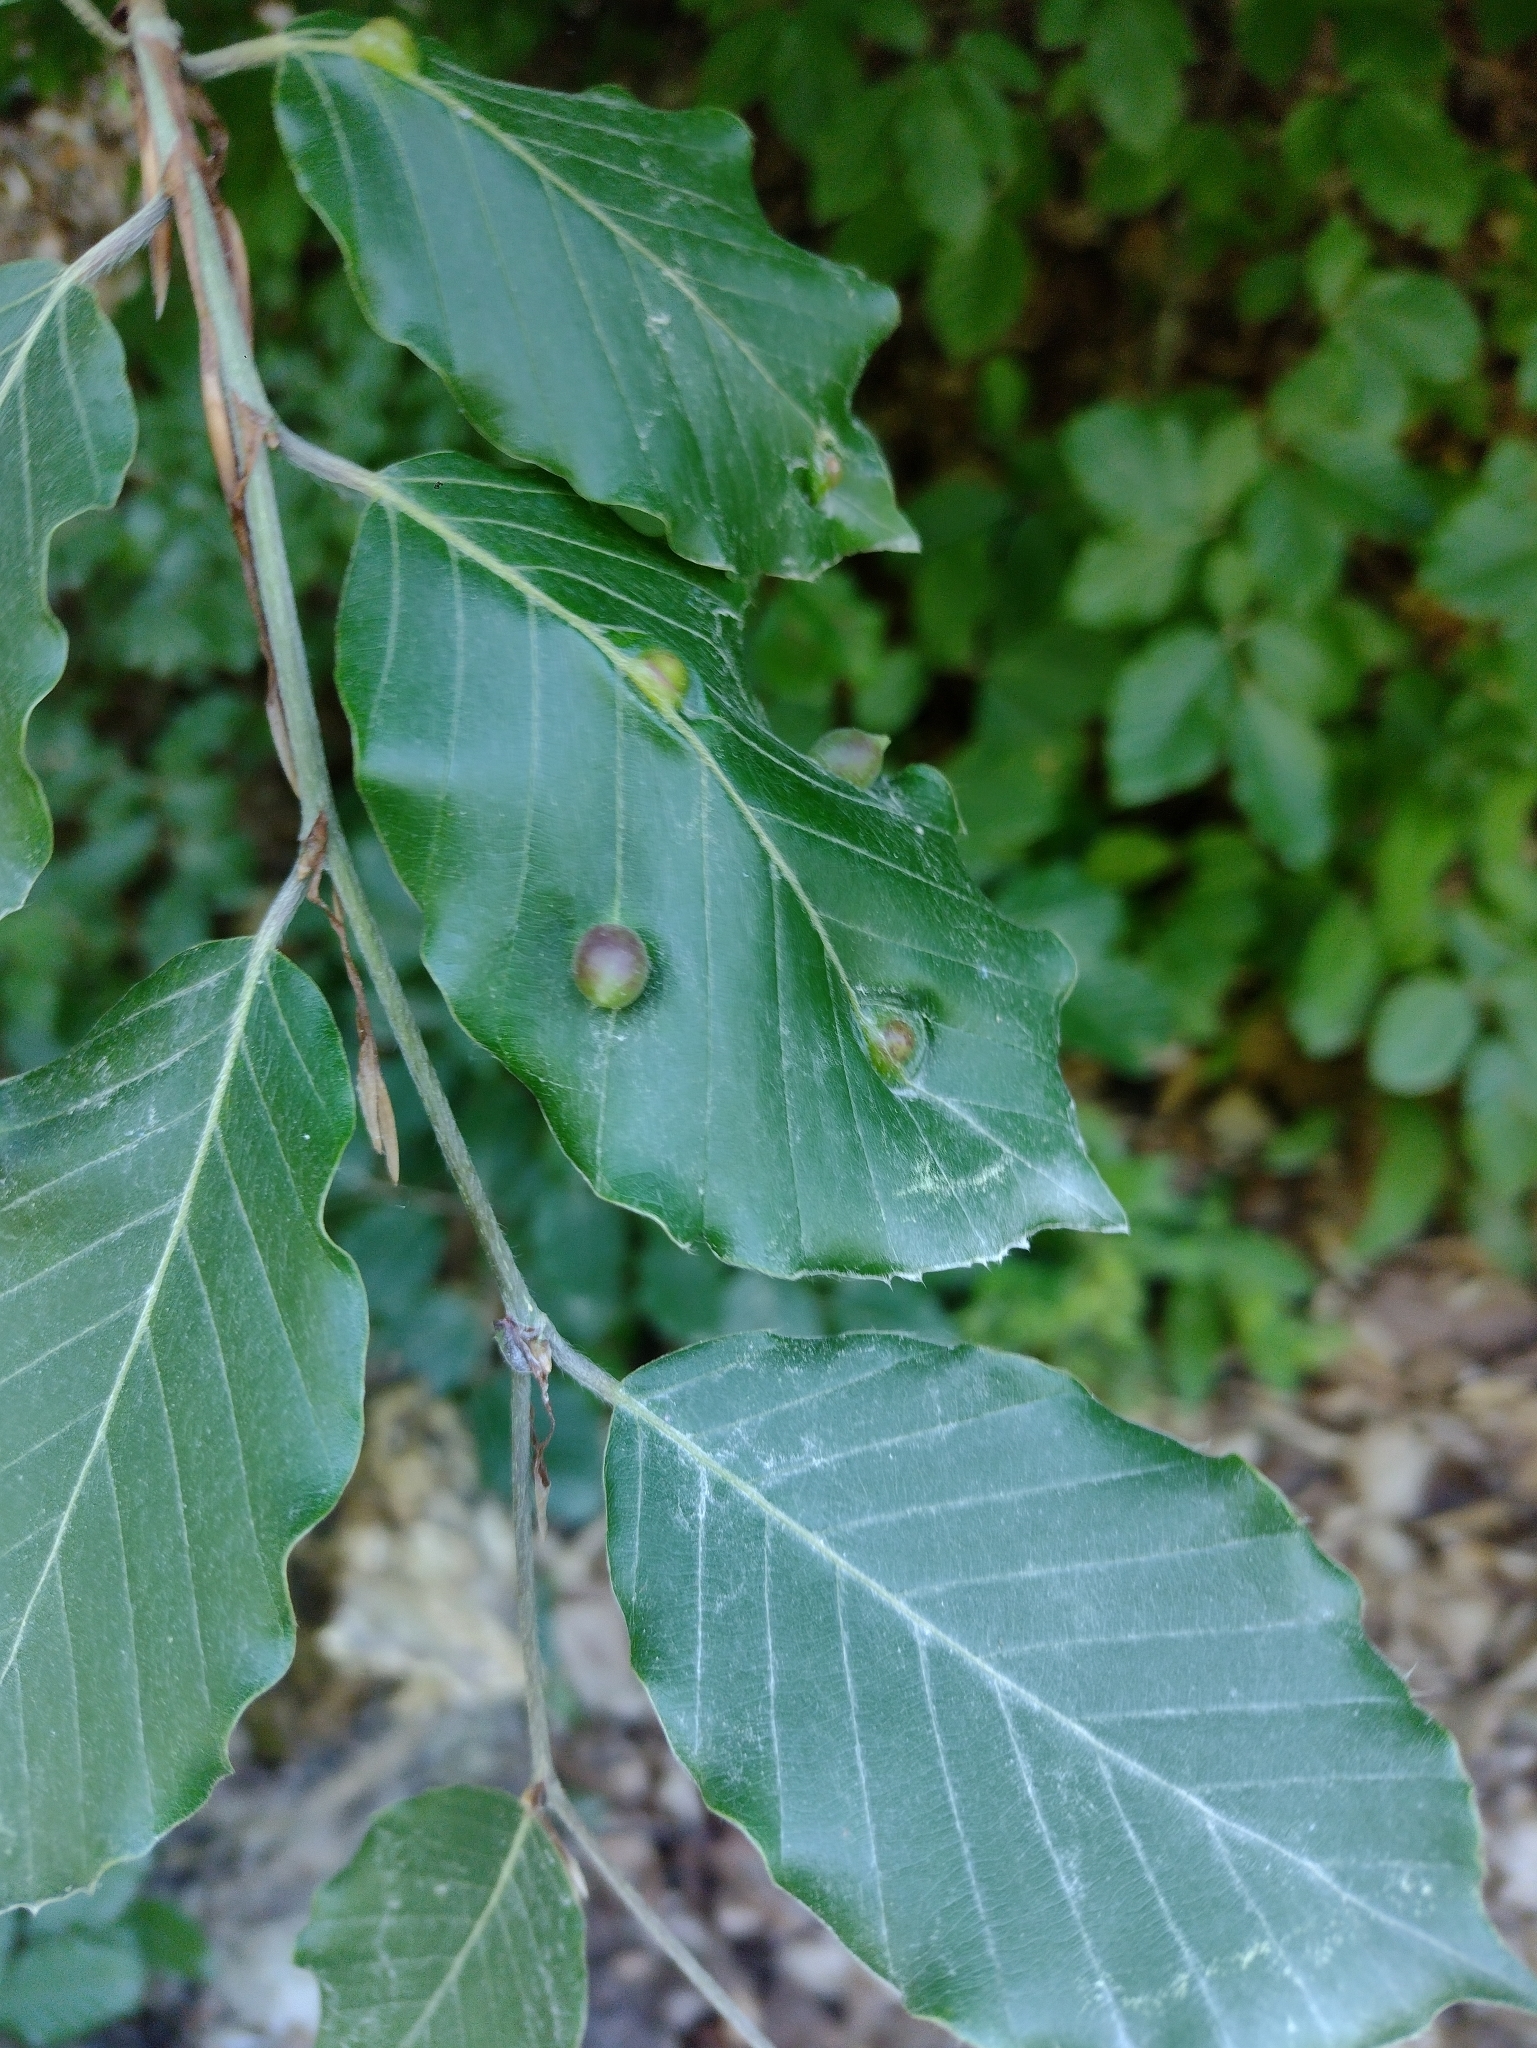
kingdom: Animalia
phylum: Arthropoda
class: Insecta
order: Diptera
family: Cecidomyiidae
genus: Mikiola
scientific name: Mikiola fagi
